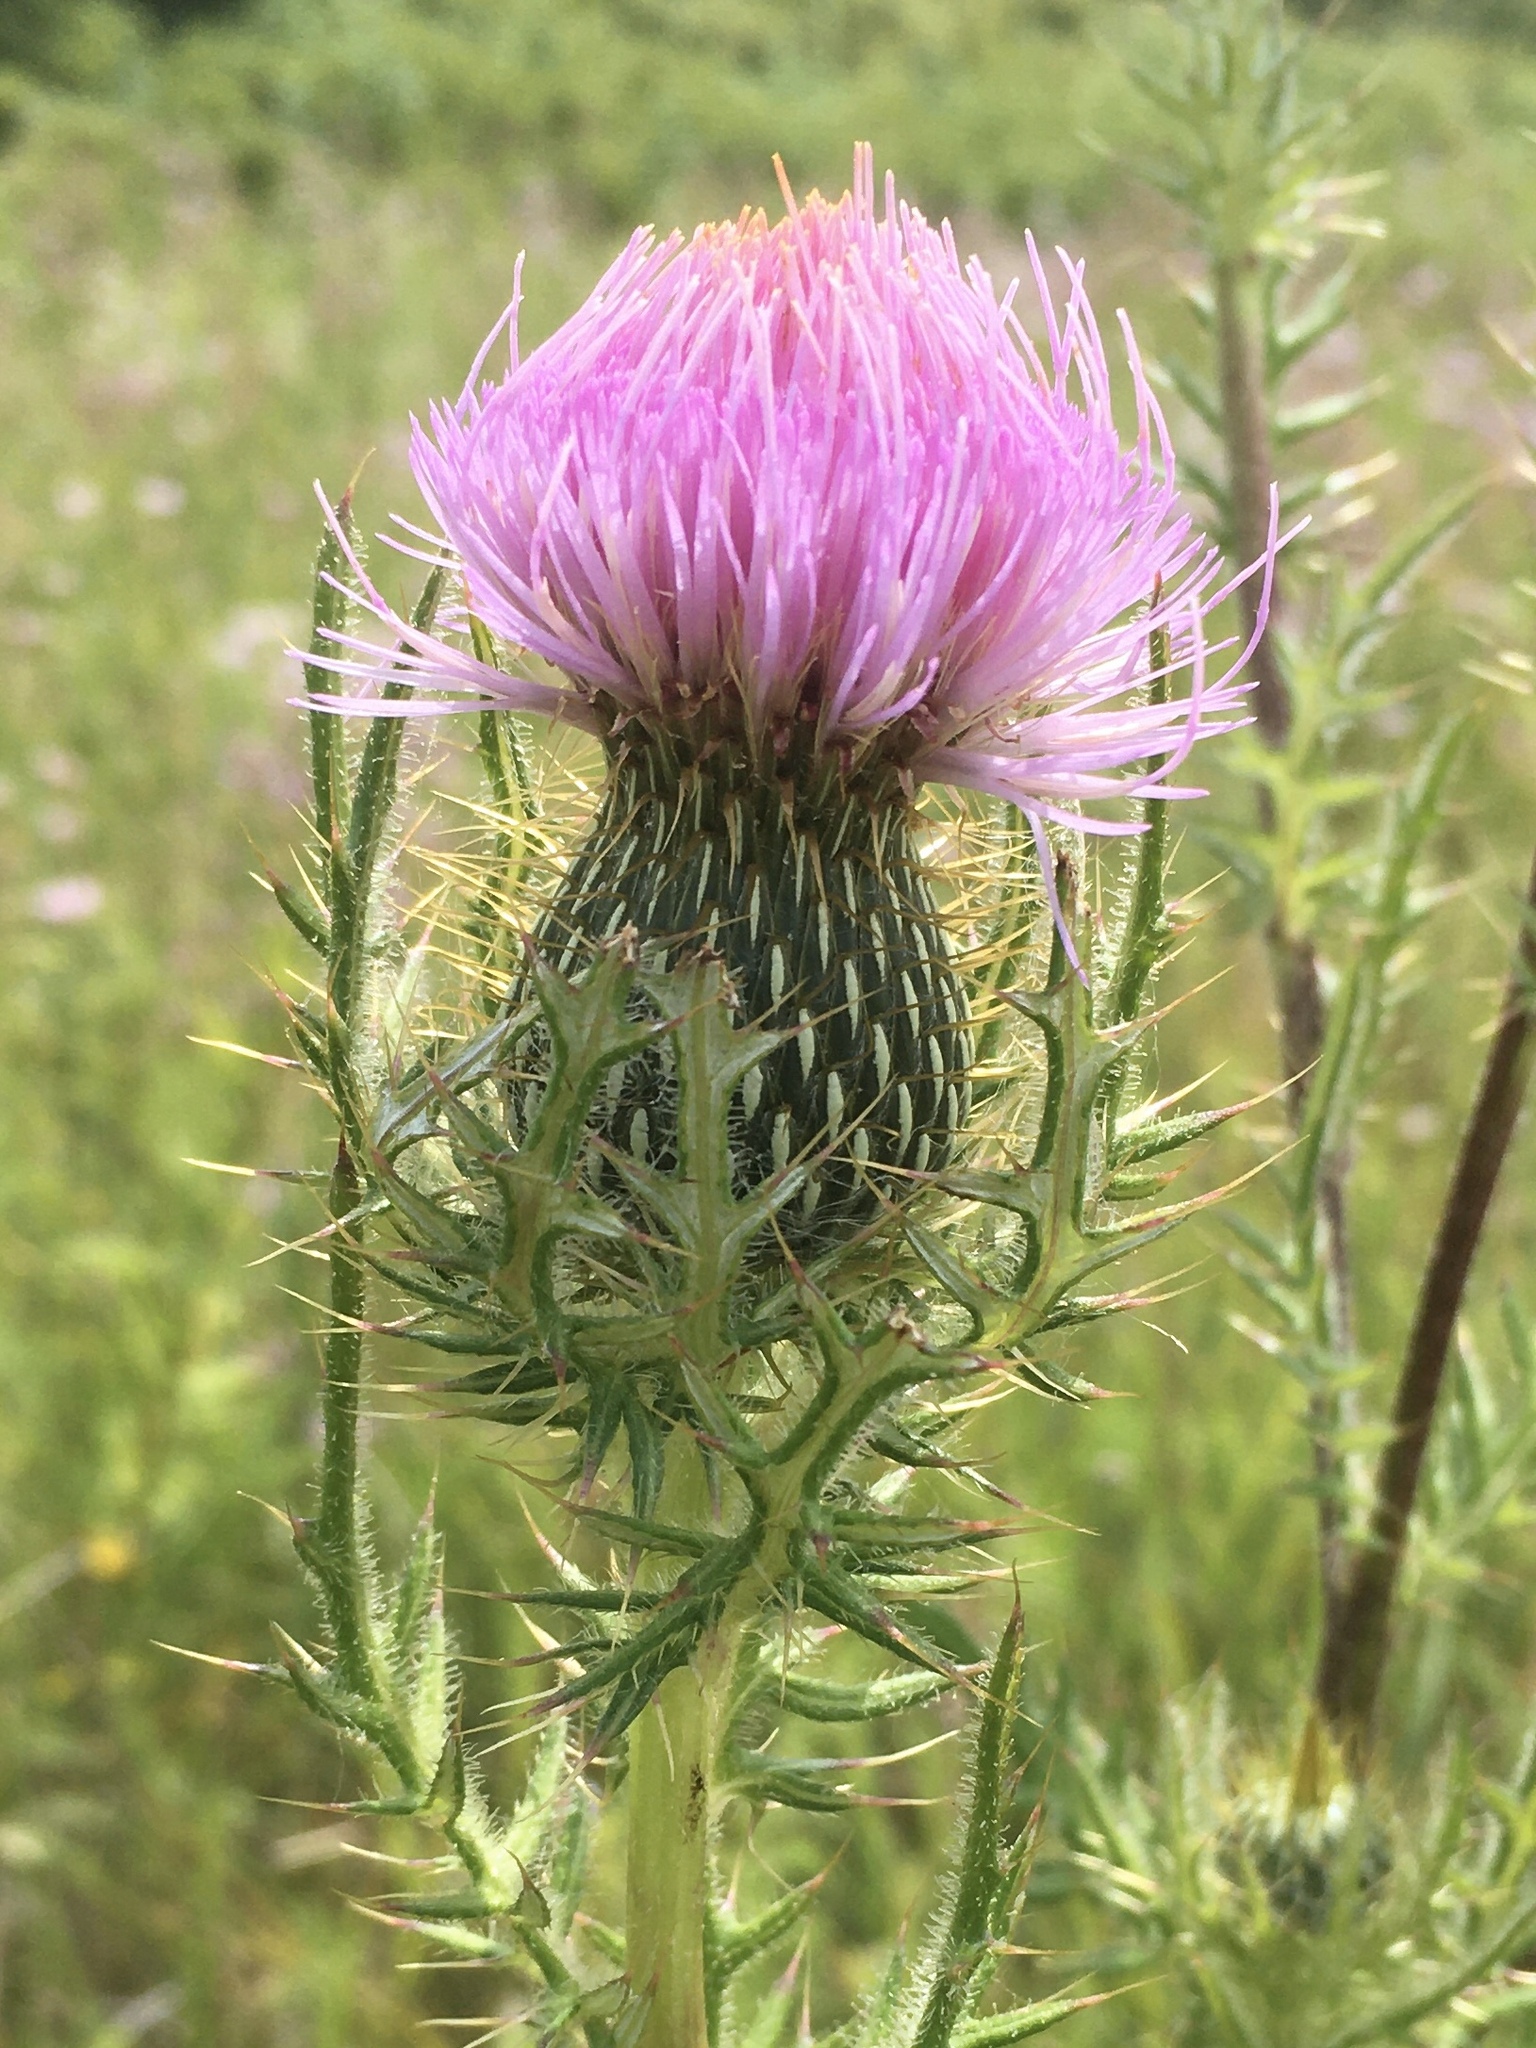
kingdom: Plantae
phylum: Tracheophyta
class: Magnoliopsida
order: Asterales
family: Asteraceae
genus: Cirsium
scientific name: Cirsium discolor
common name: Field thistle
